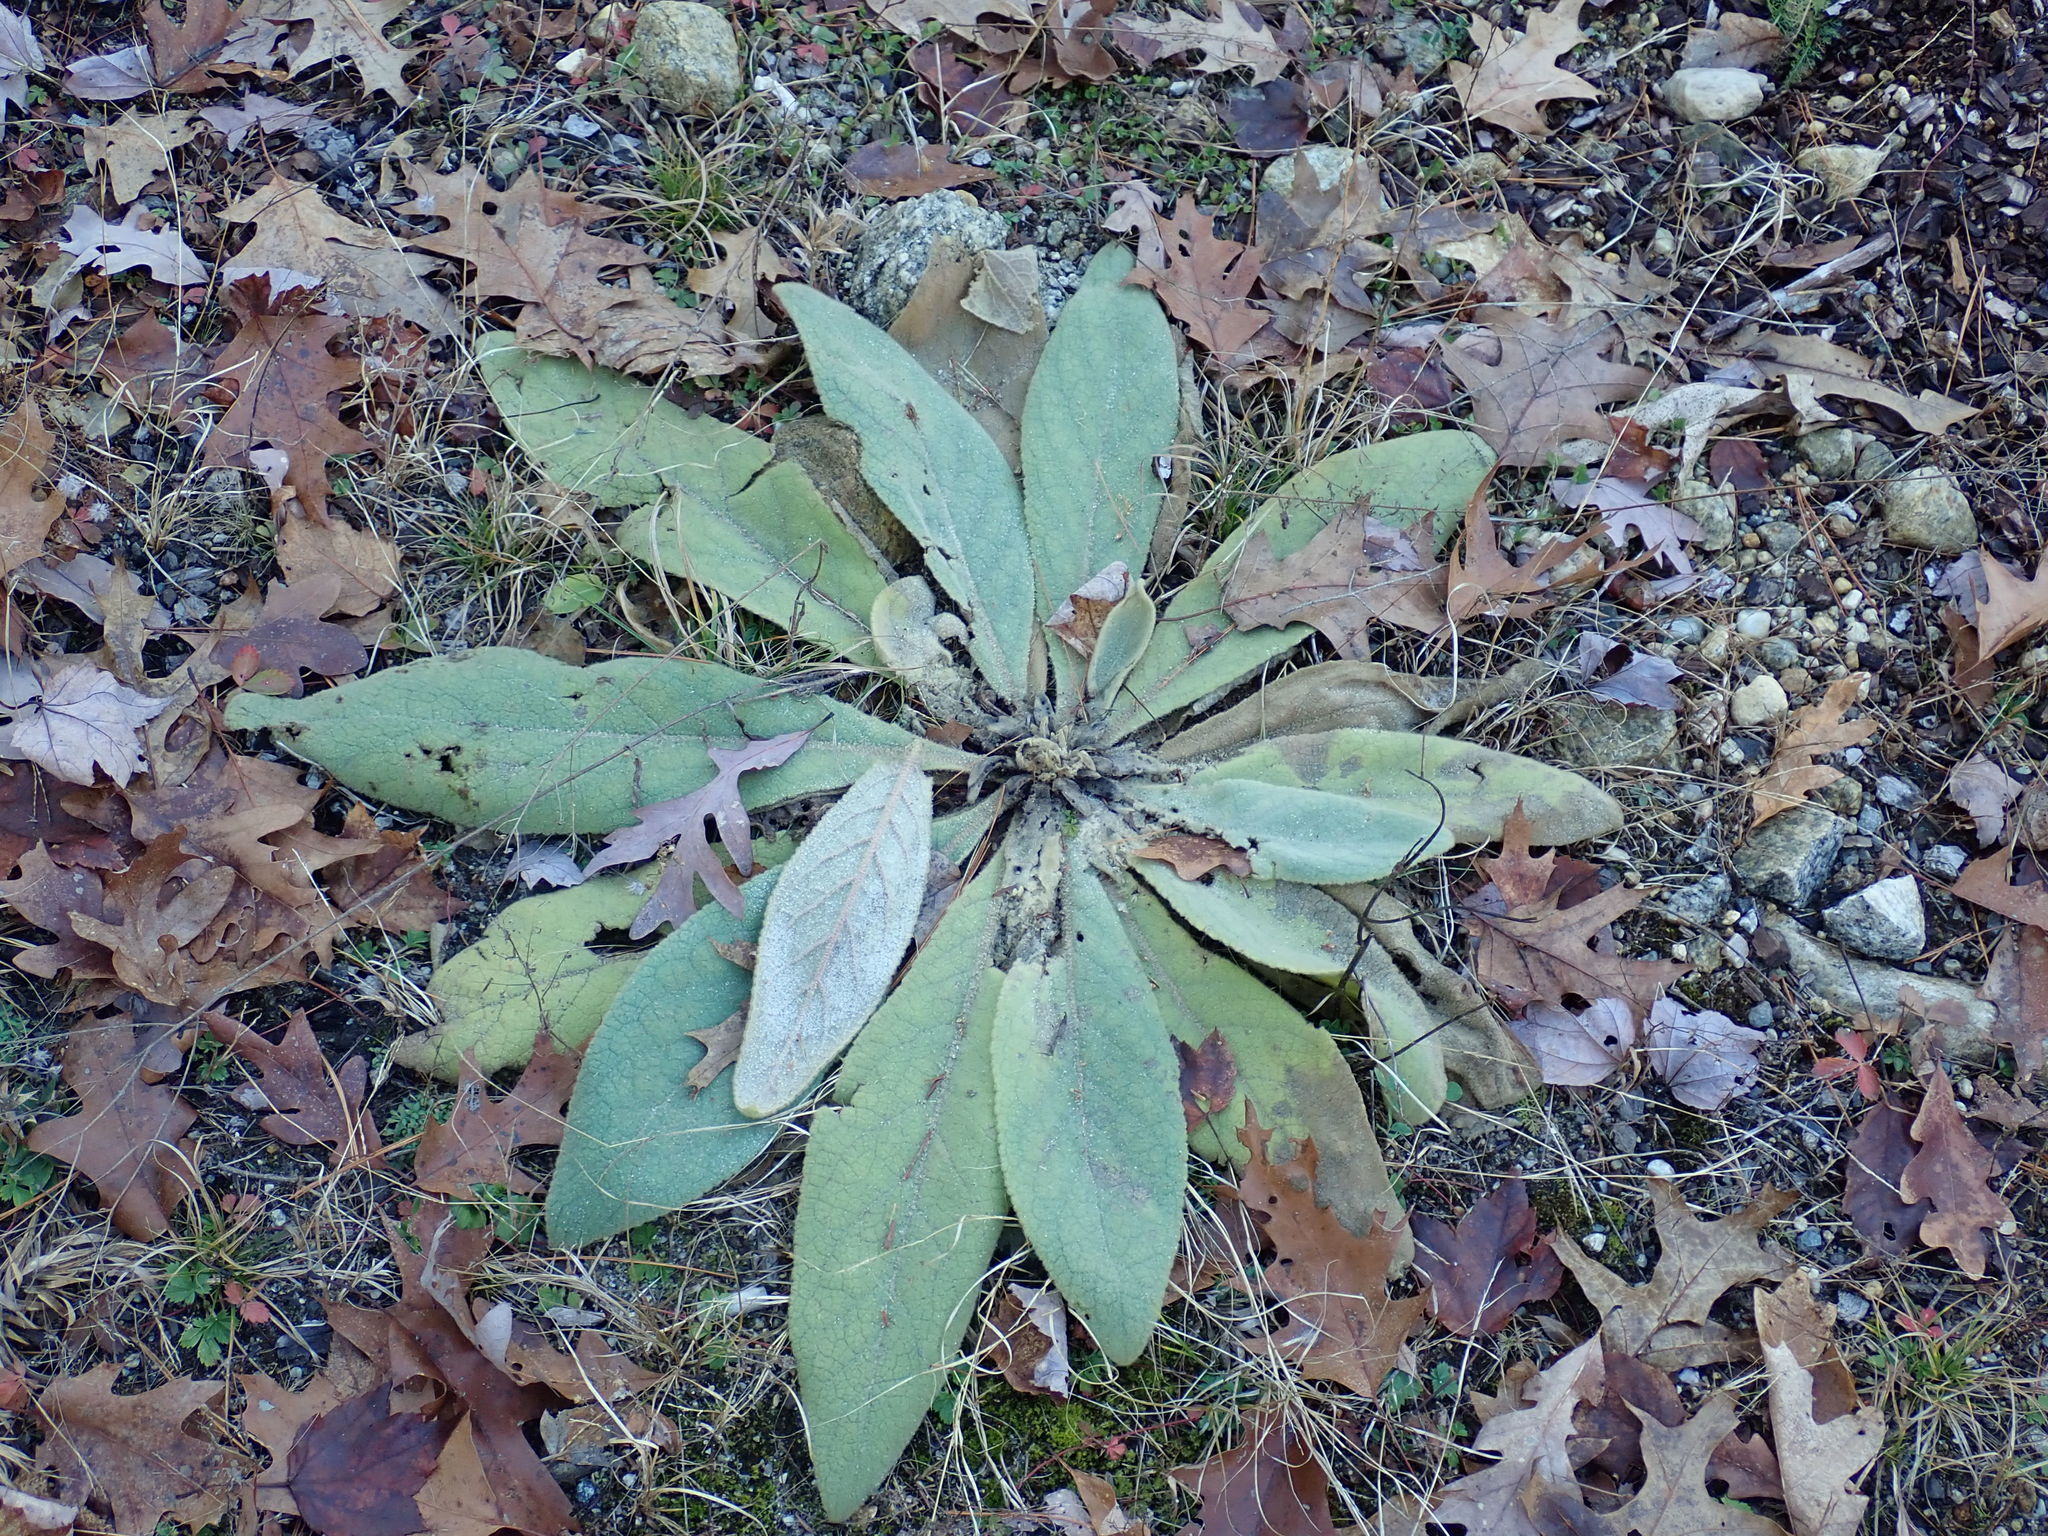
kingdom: Plantae
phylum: Tracheophyta
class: Magnoliopsida
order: Lamiales
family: Scrophulariaceae
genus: Verbascum
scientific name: Verbascum thapsus
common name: Common mullein
